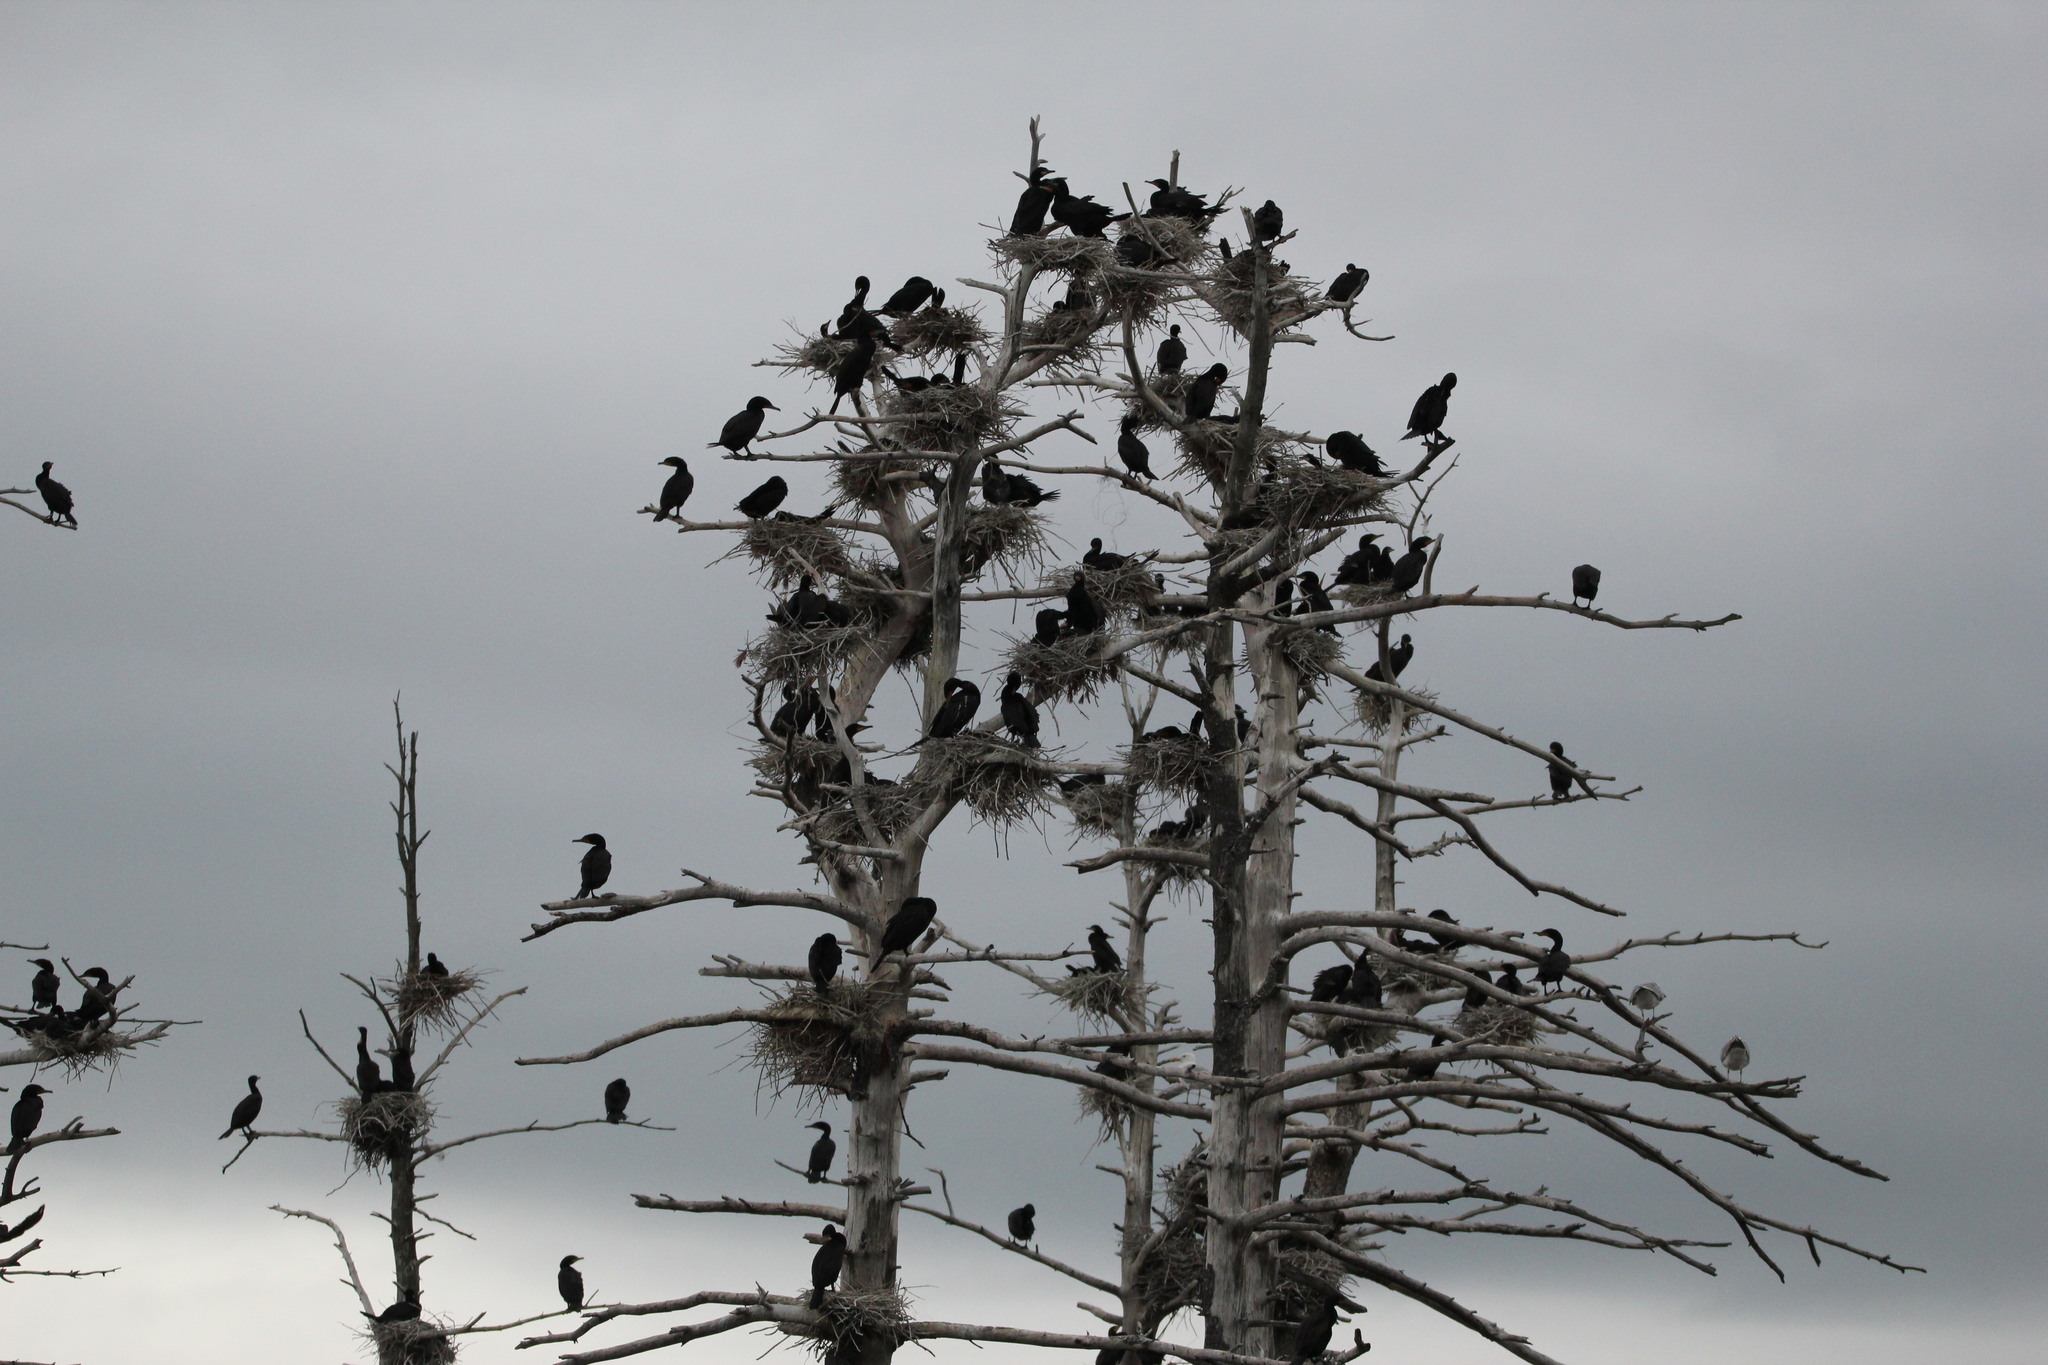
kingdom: Animalia
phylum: Chordata
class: Aves
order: Suliformes
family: Phalacrocoracidae
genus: Phalacrocorax
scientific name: Phalacrocorax auritus
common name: Double-crested cormorant
